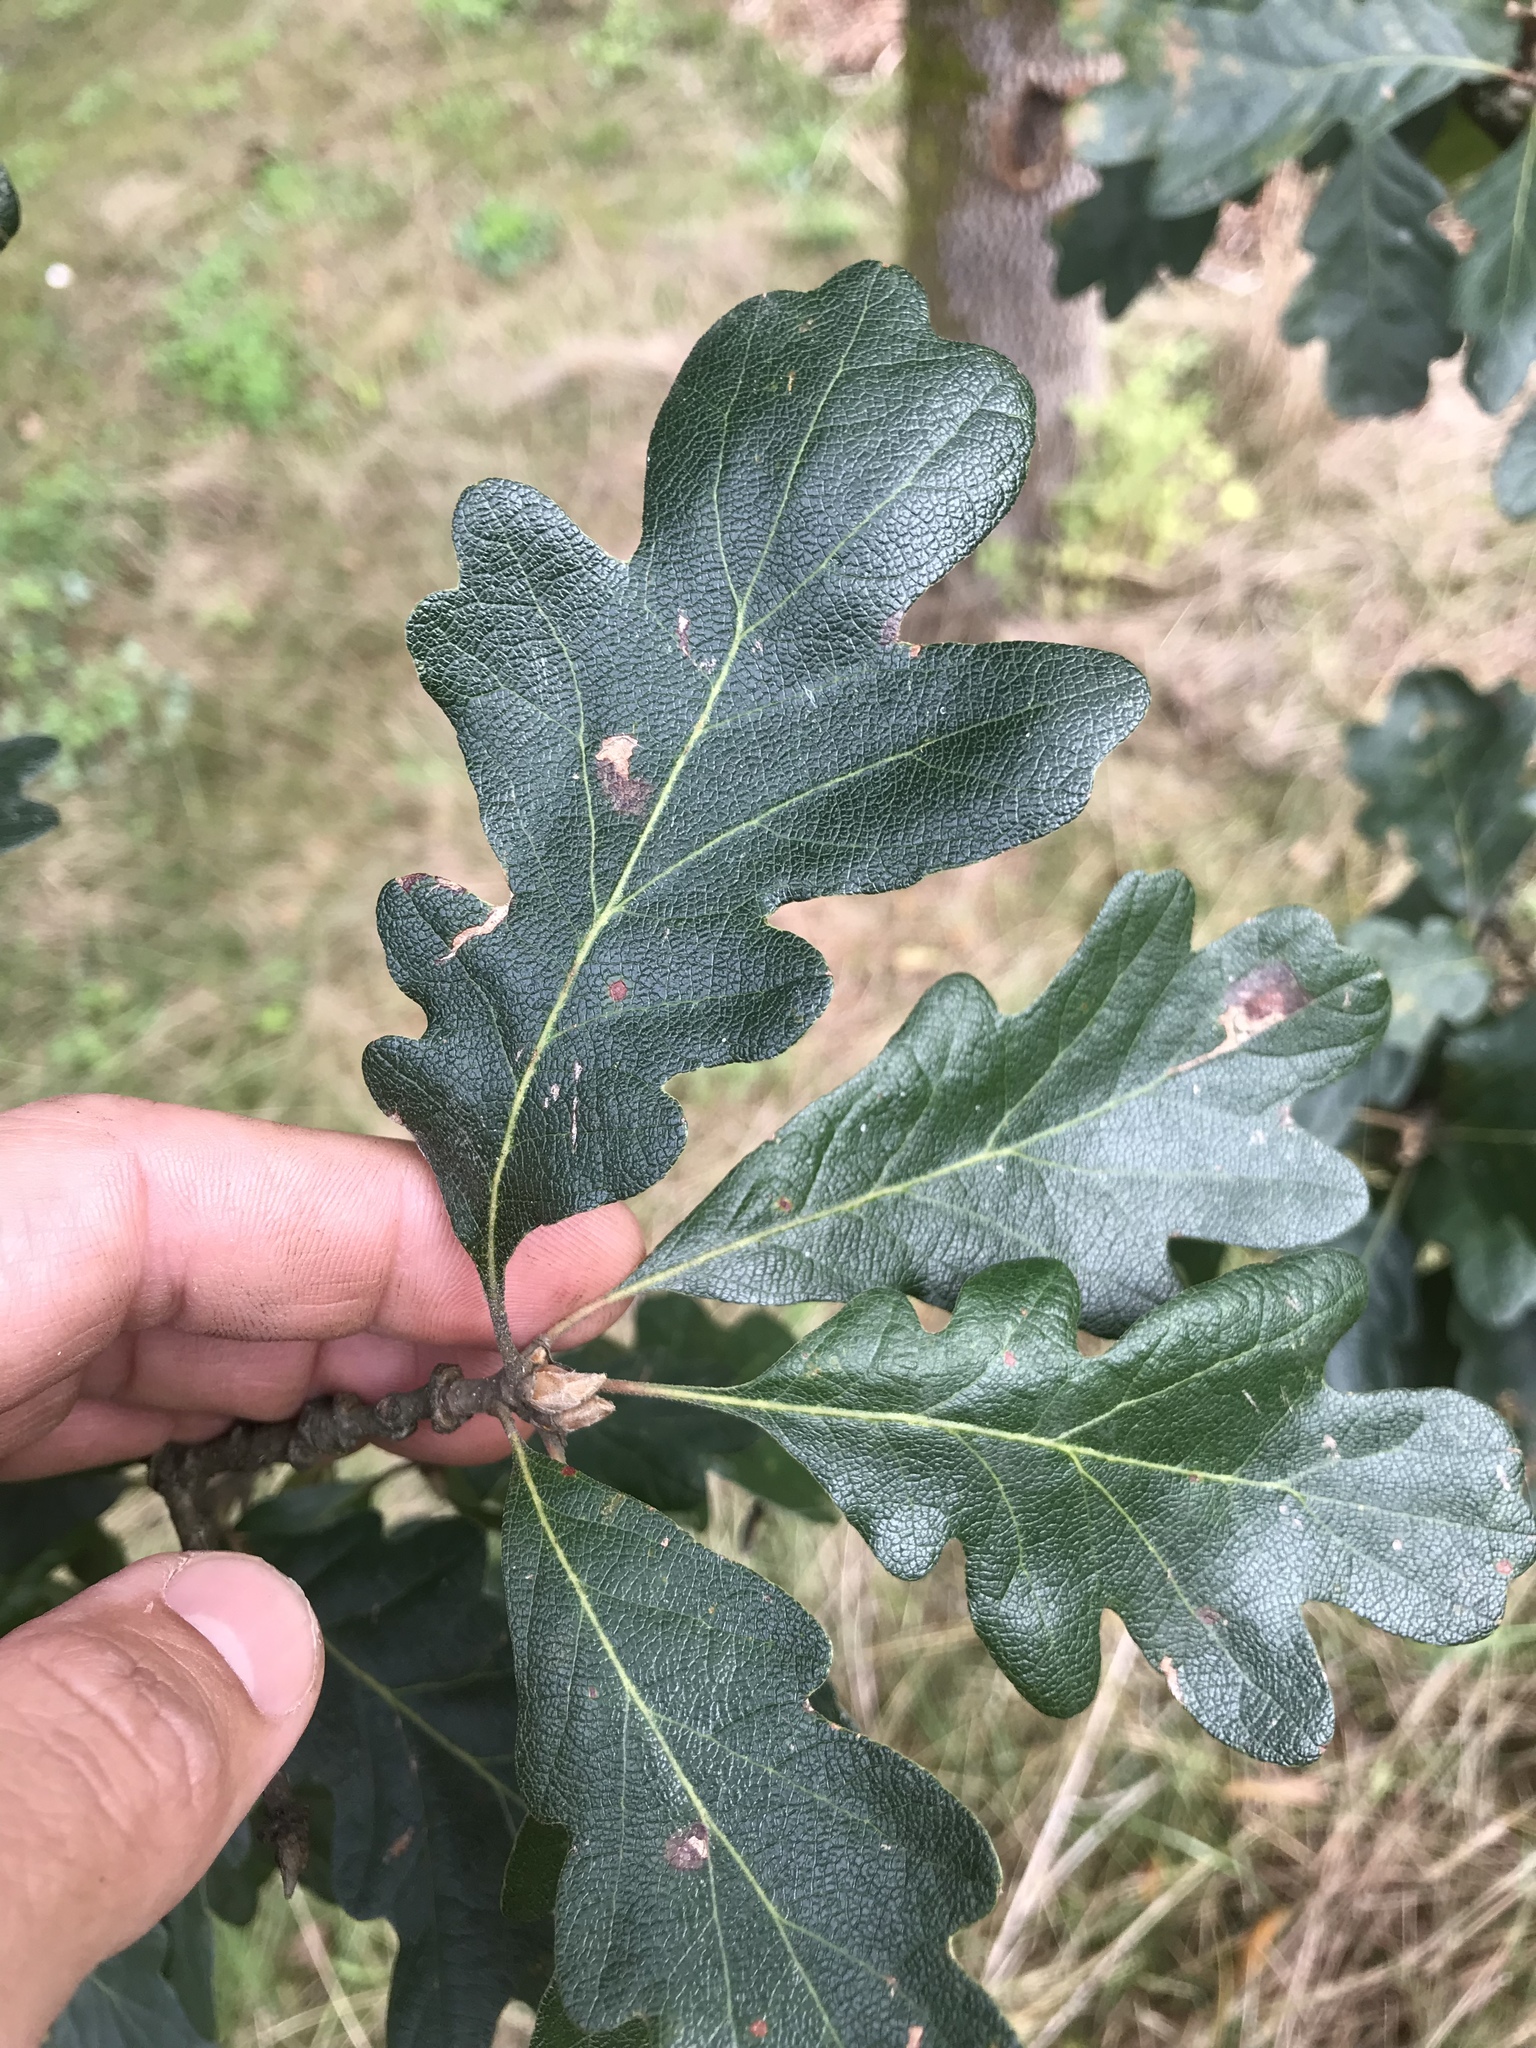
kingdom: Plantae
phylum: Tracheophyta
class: Magnoliopsida
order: Fagales
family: Fagaceae
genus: Quercus
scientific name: Quercus garryana
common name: Garry oak
